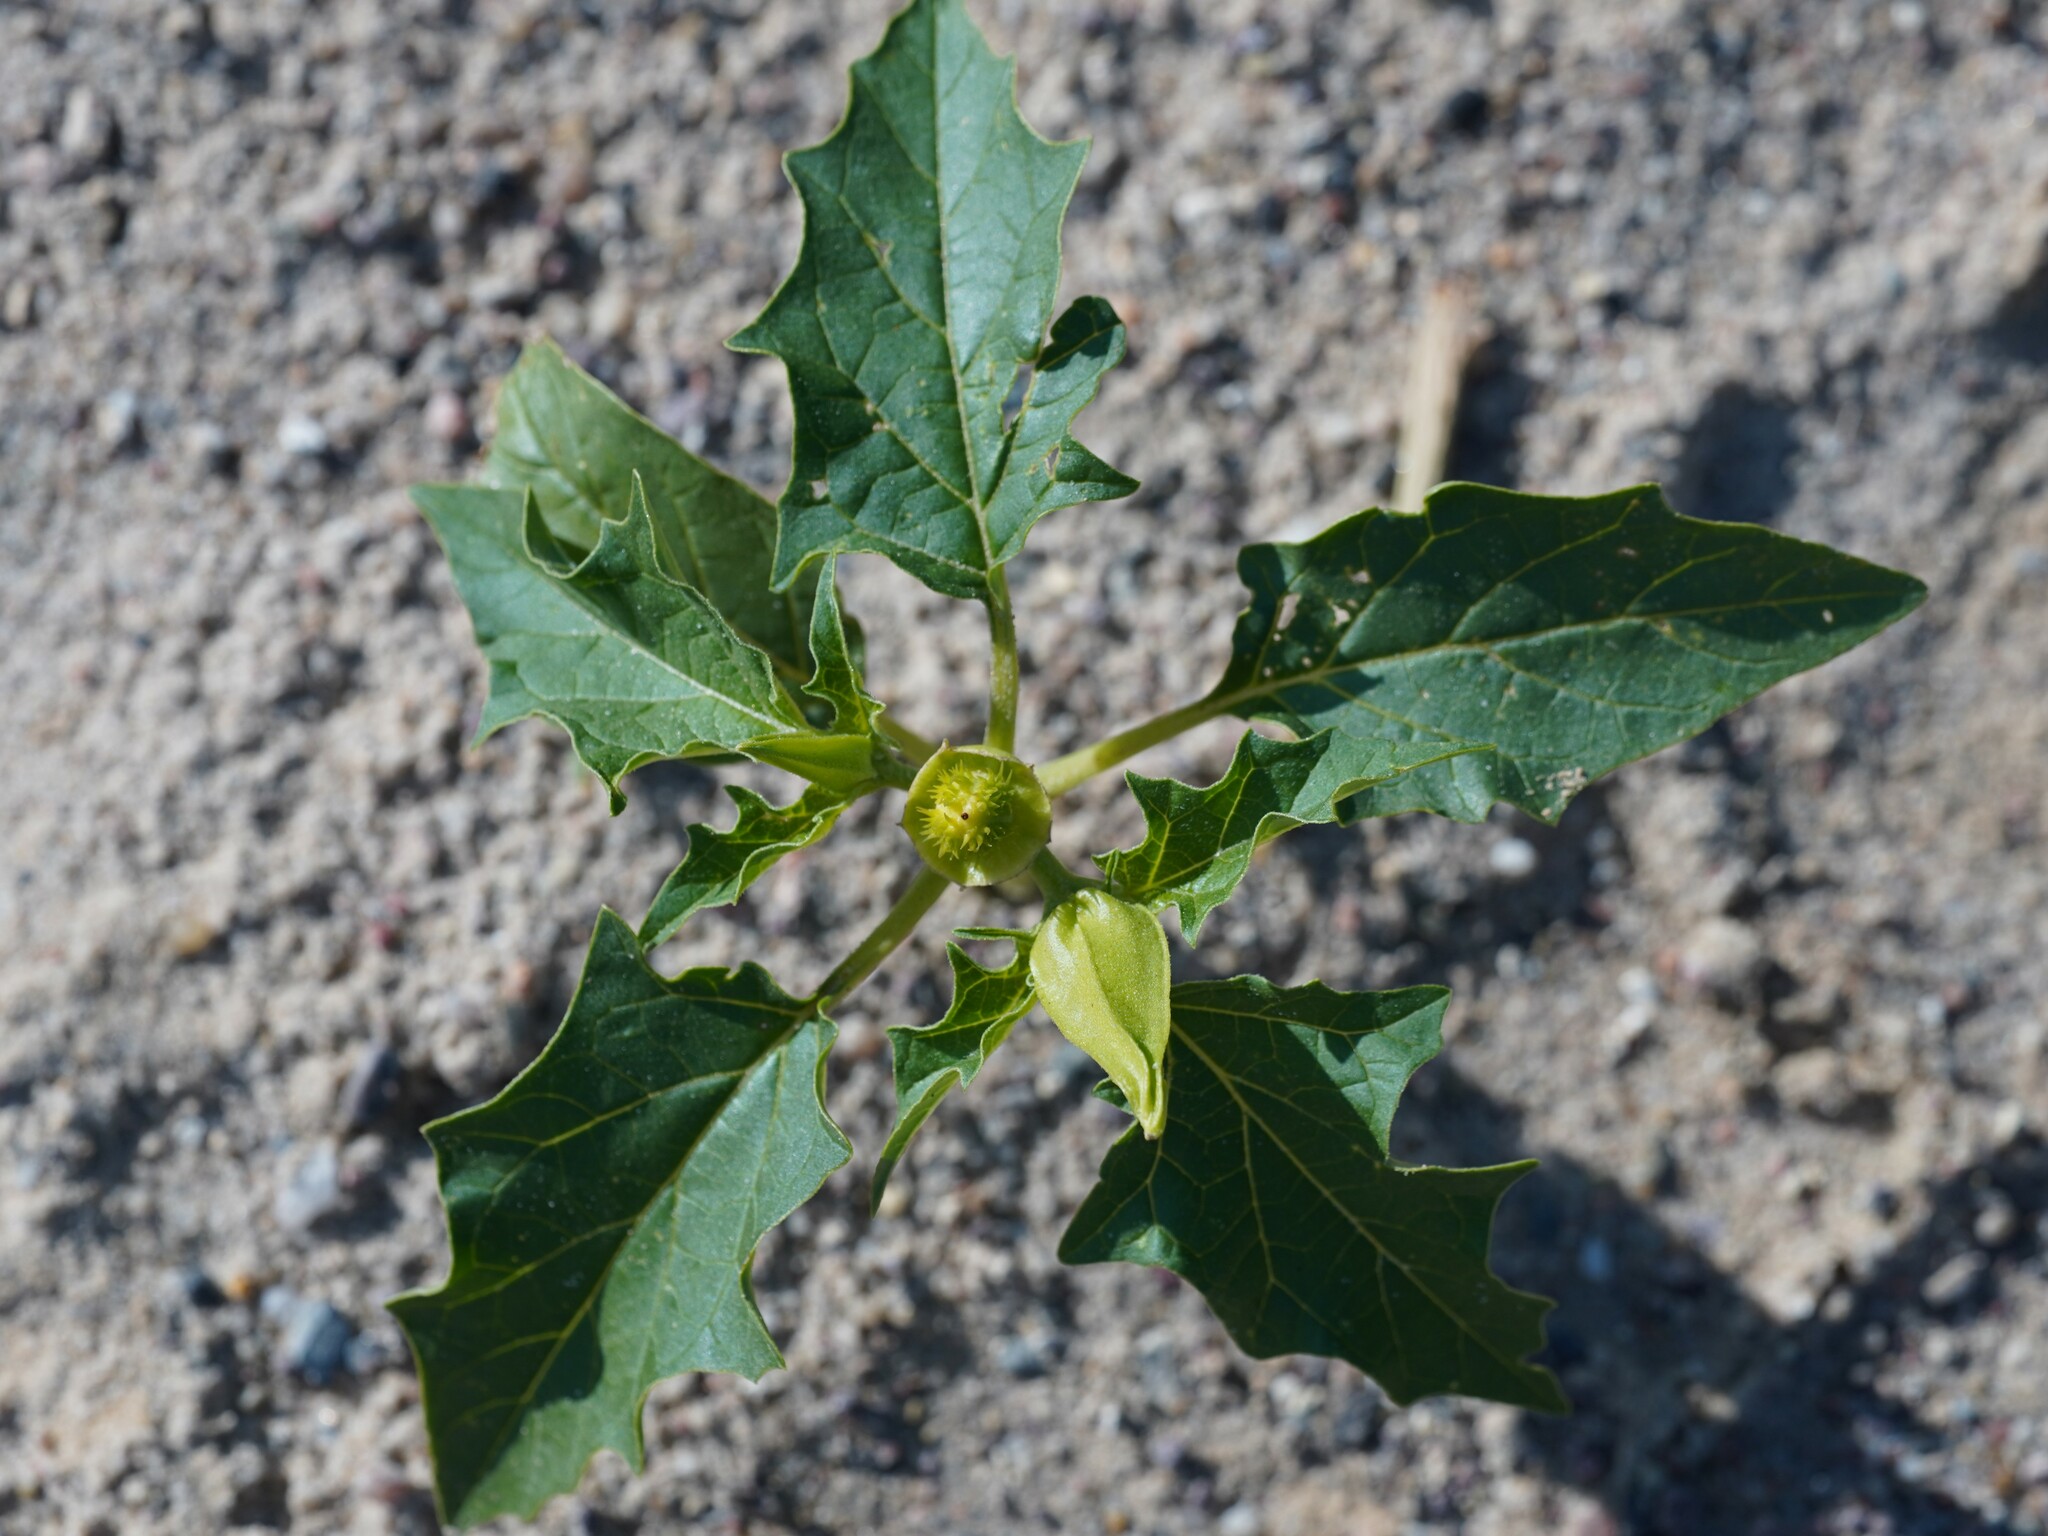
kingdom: Plantae
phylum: Tracheophyta
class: Magnoliopsida
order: Solanales
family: Solanaceae
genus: Datura
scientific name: Datura stramonium
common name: Thorn-apple
